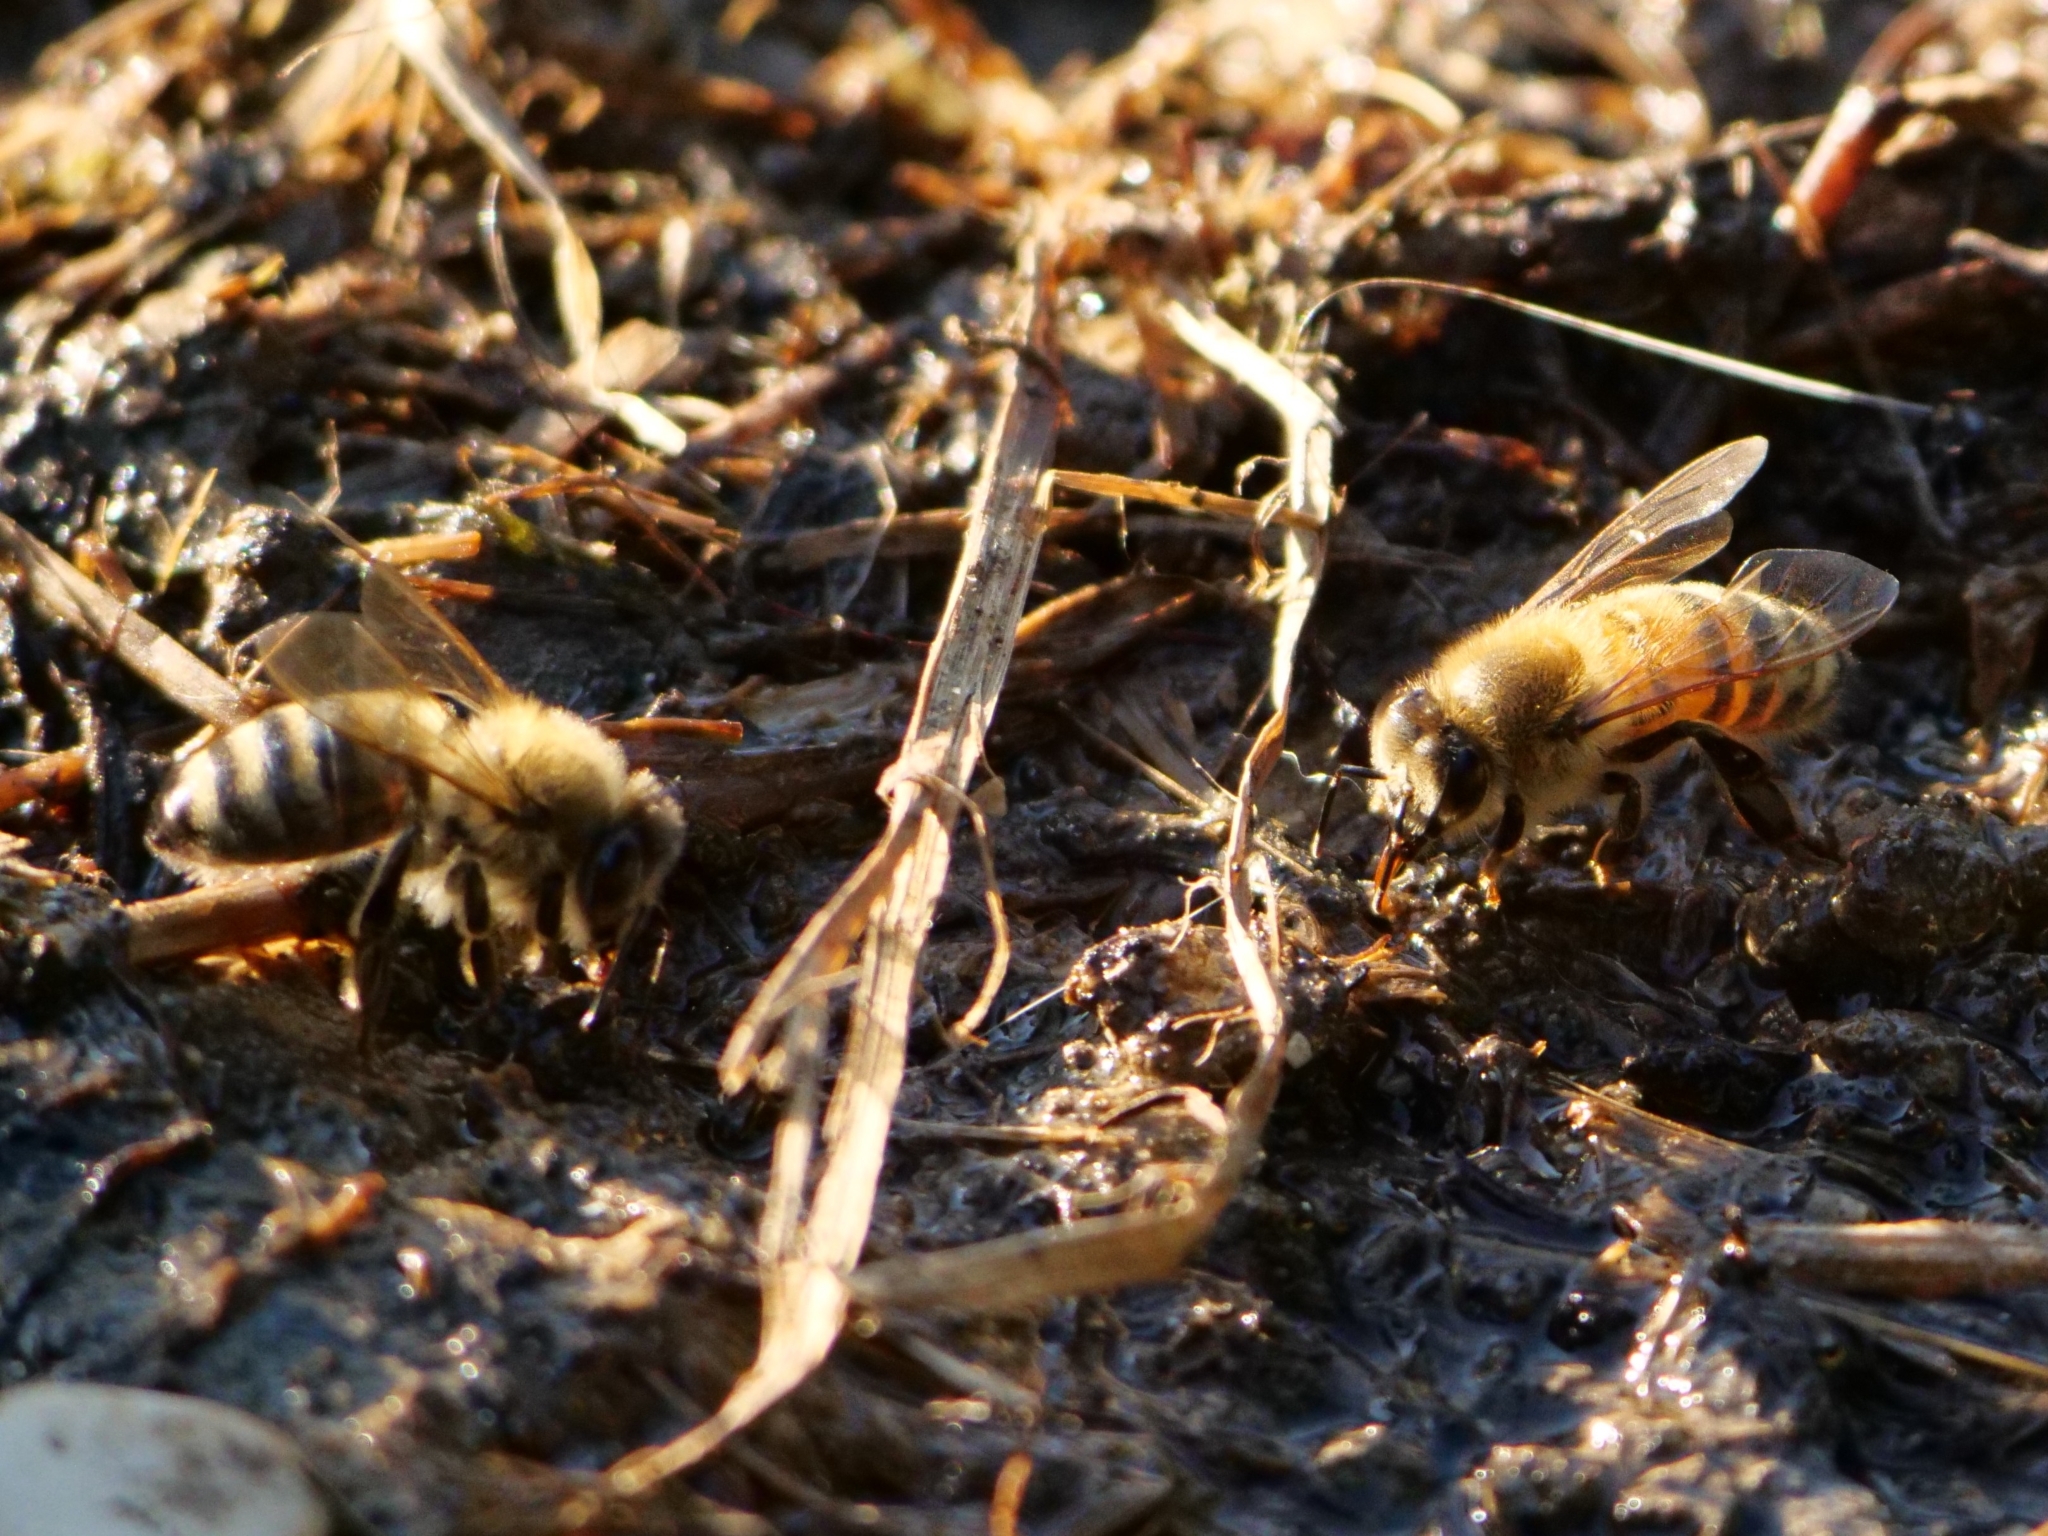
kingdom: Animalia
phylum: Arthropoda
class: Insecta
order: Hymenoptera
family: Apidae
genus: Apis
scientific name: Apis mellifera
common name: Honey bee
